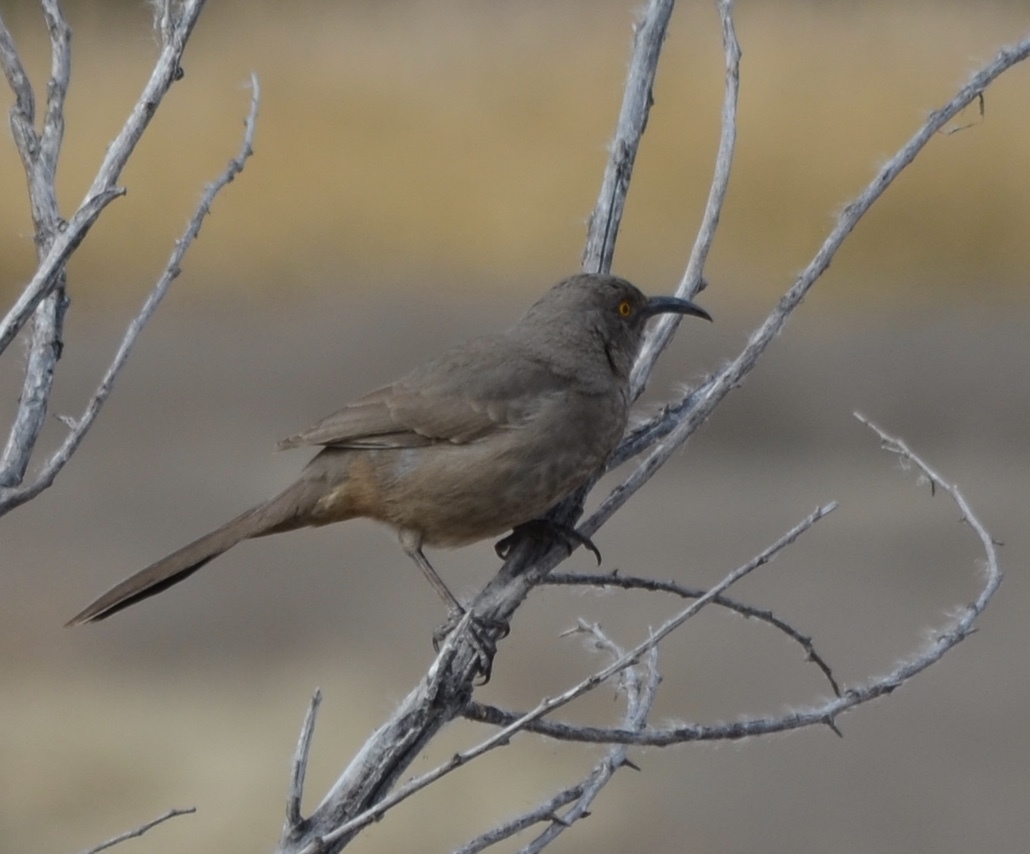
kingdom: Animalia
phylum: Chordata
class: Aves
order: Passeriformes
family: Mimidae
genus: Toxostoma
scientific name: Toxostoma curvirostre
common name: Curve-billed thrasher
